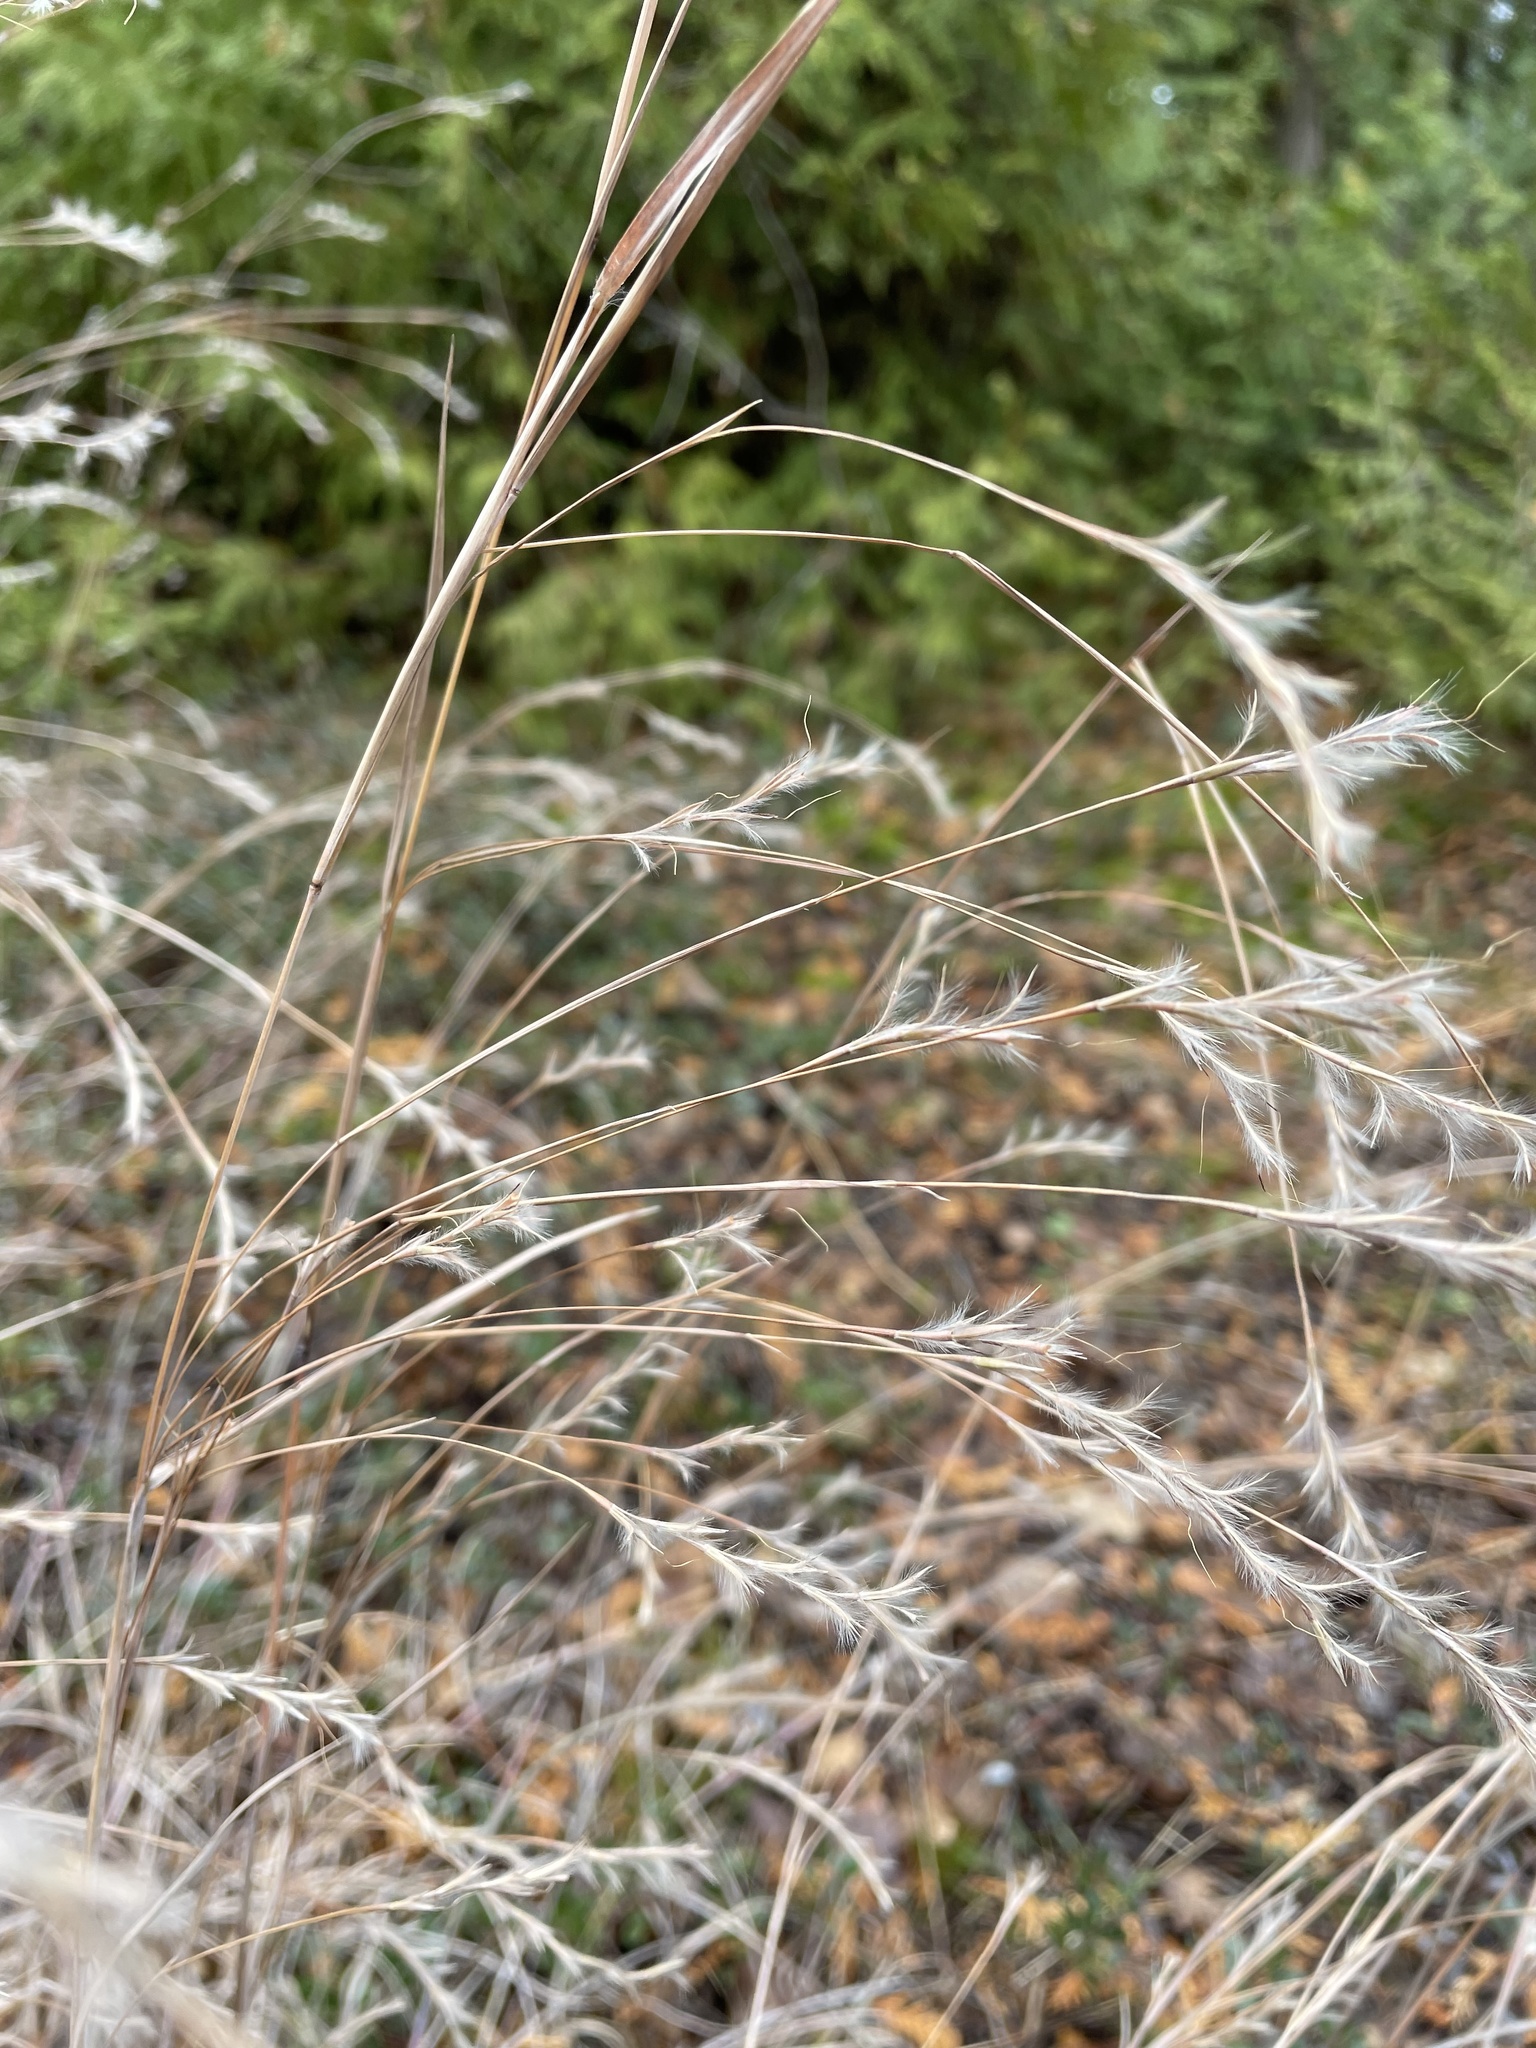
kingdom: Plantae
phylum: Tracheophyta
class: Liliopsida
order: Poales
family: Poaceae
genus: Schizachyrium
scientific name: Schizachyrium scoparium
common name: Little bluestem
